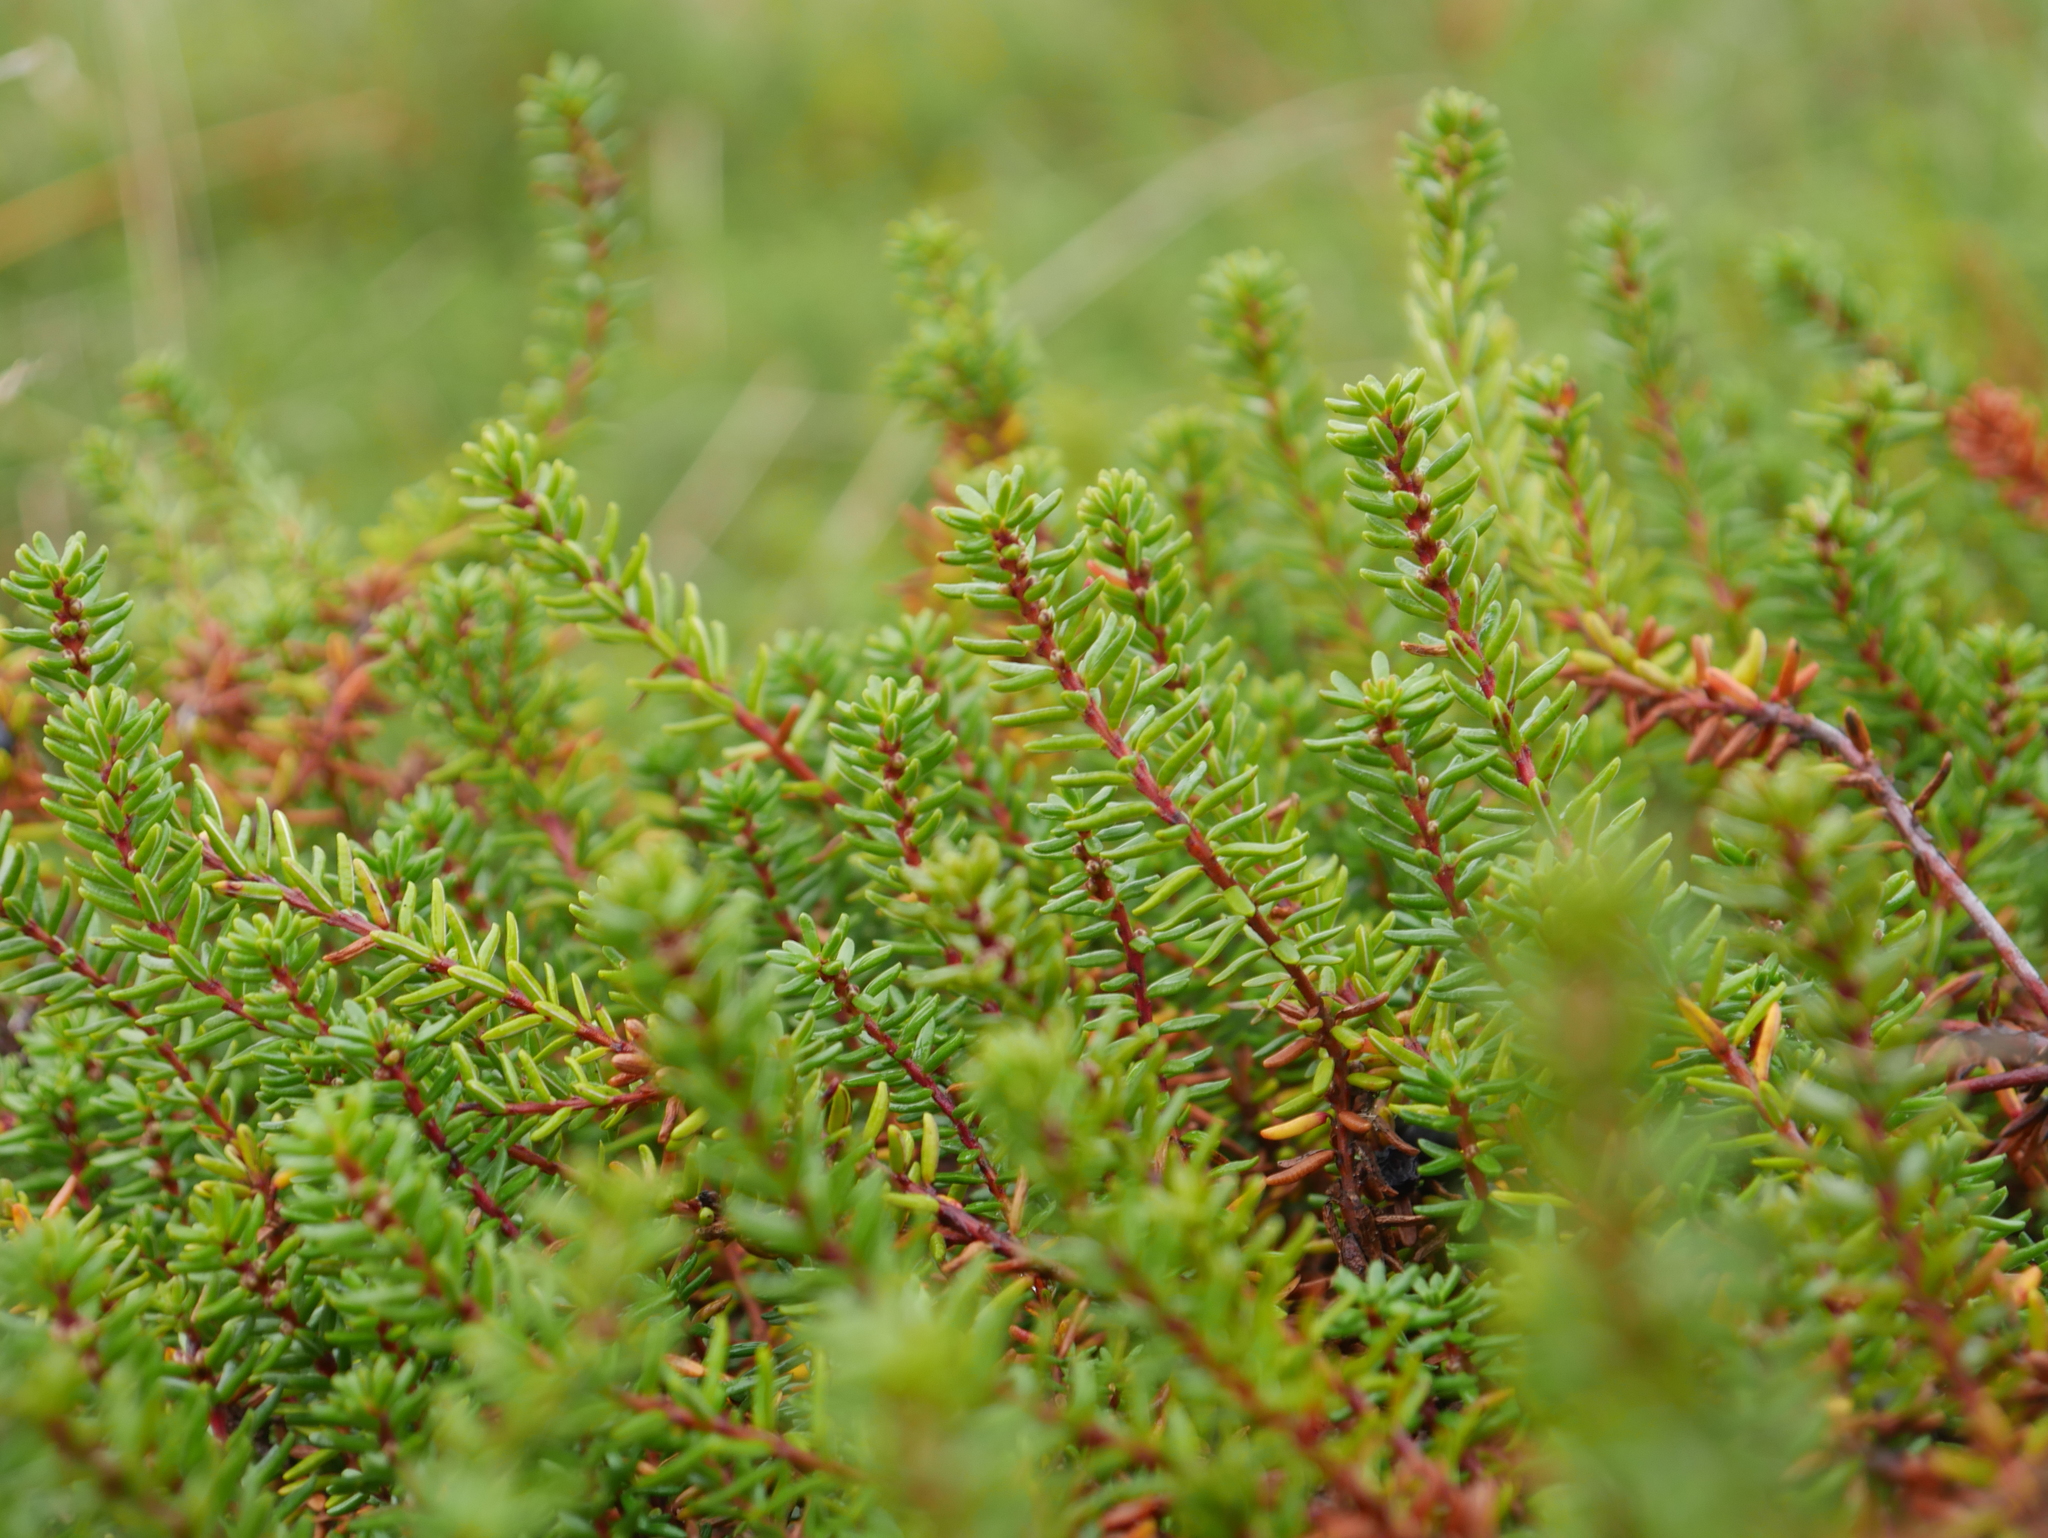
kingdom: Plantae
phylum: Tracheophyta
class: Magnoliopsida
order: Ericales
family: Ericaceae
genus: Empetrum
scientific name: Empetrum nigrum
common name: Black crowberry
